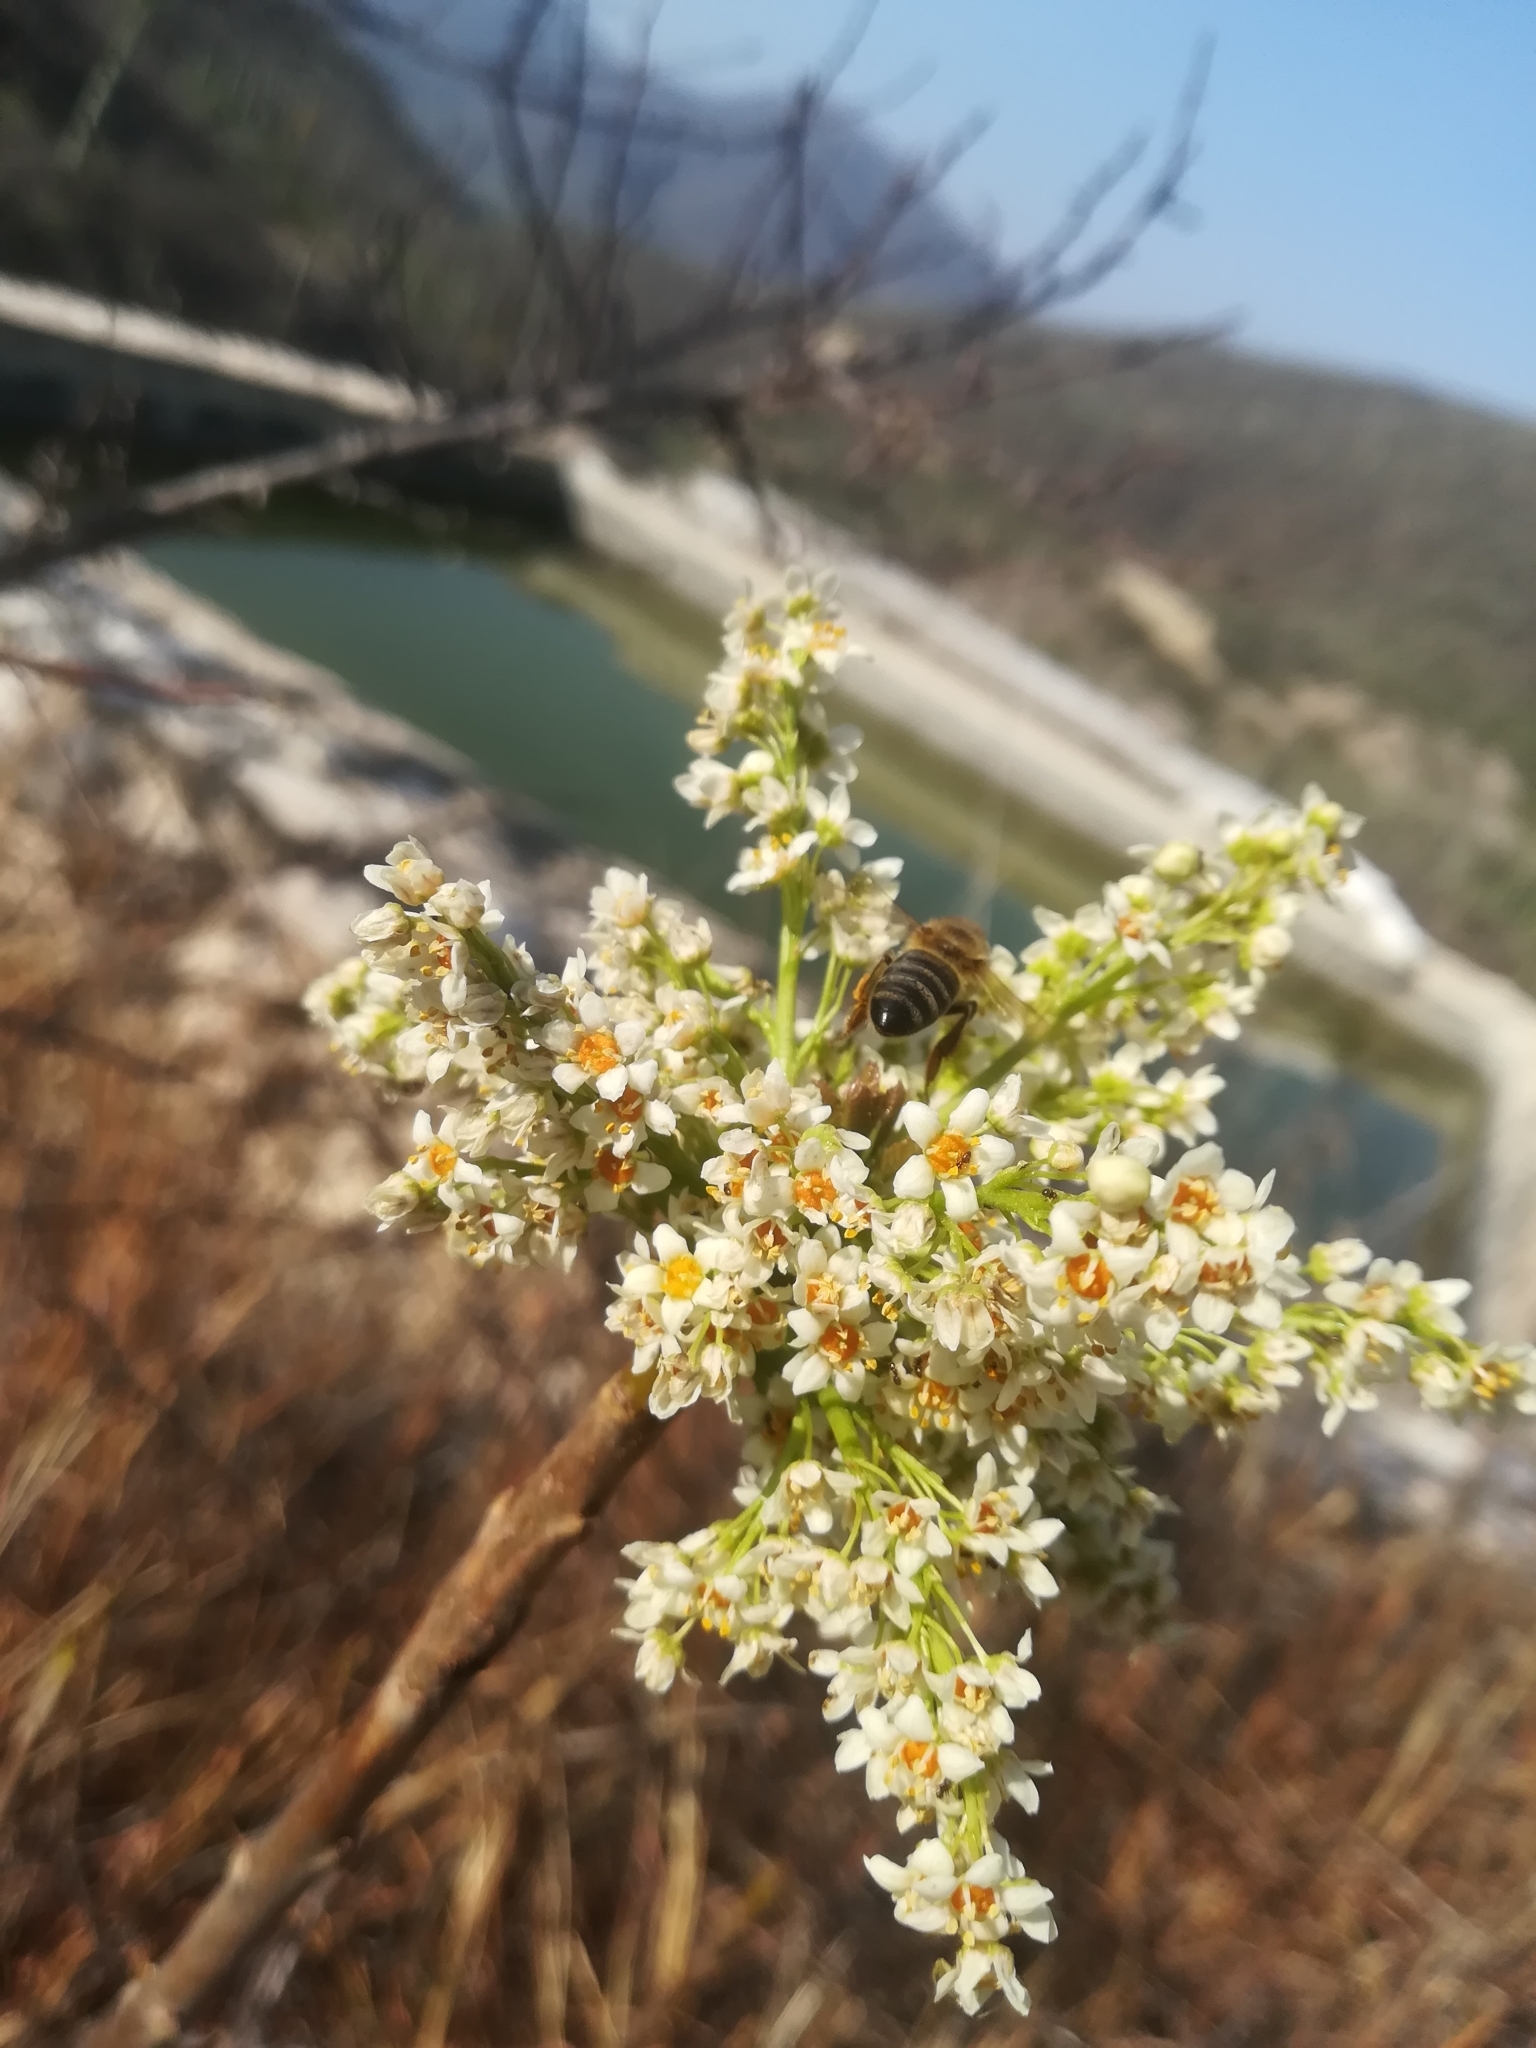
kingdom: Plantae
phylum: Tracheophyta
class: Magnoliopsida
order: Sapindales
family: Anacardiaceae
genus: Pseudosmodingium
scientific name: Pseudosmodingium andrieuxii
